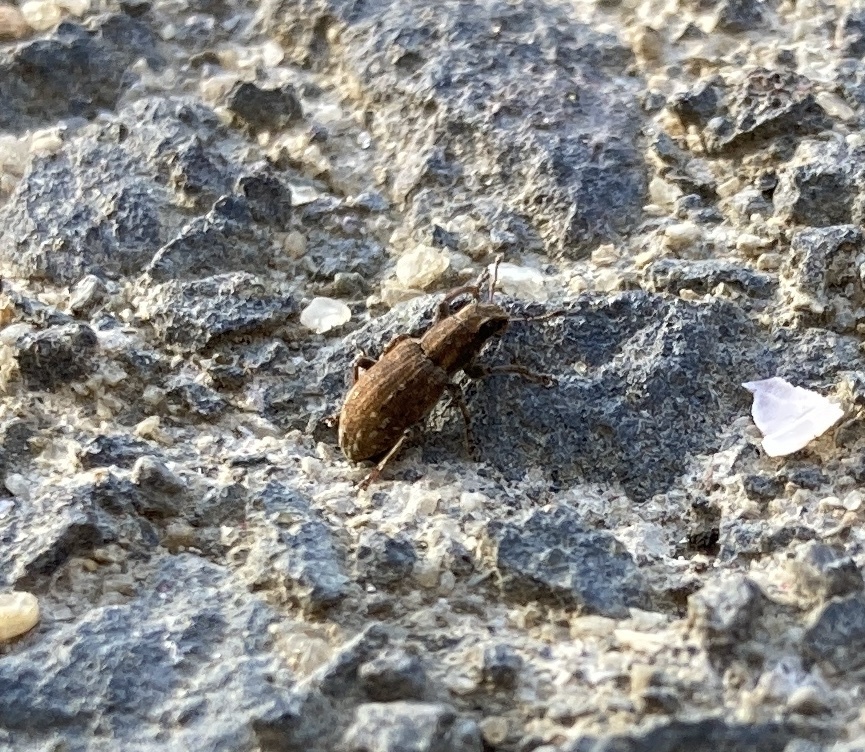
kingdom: Animalia
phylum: Arthropoda
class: Insecta
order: Coleoptera
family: Curculionidae
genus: Sitona
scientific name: Sitona obsoletus
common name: Weevil
